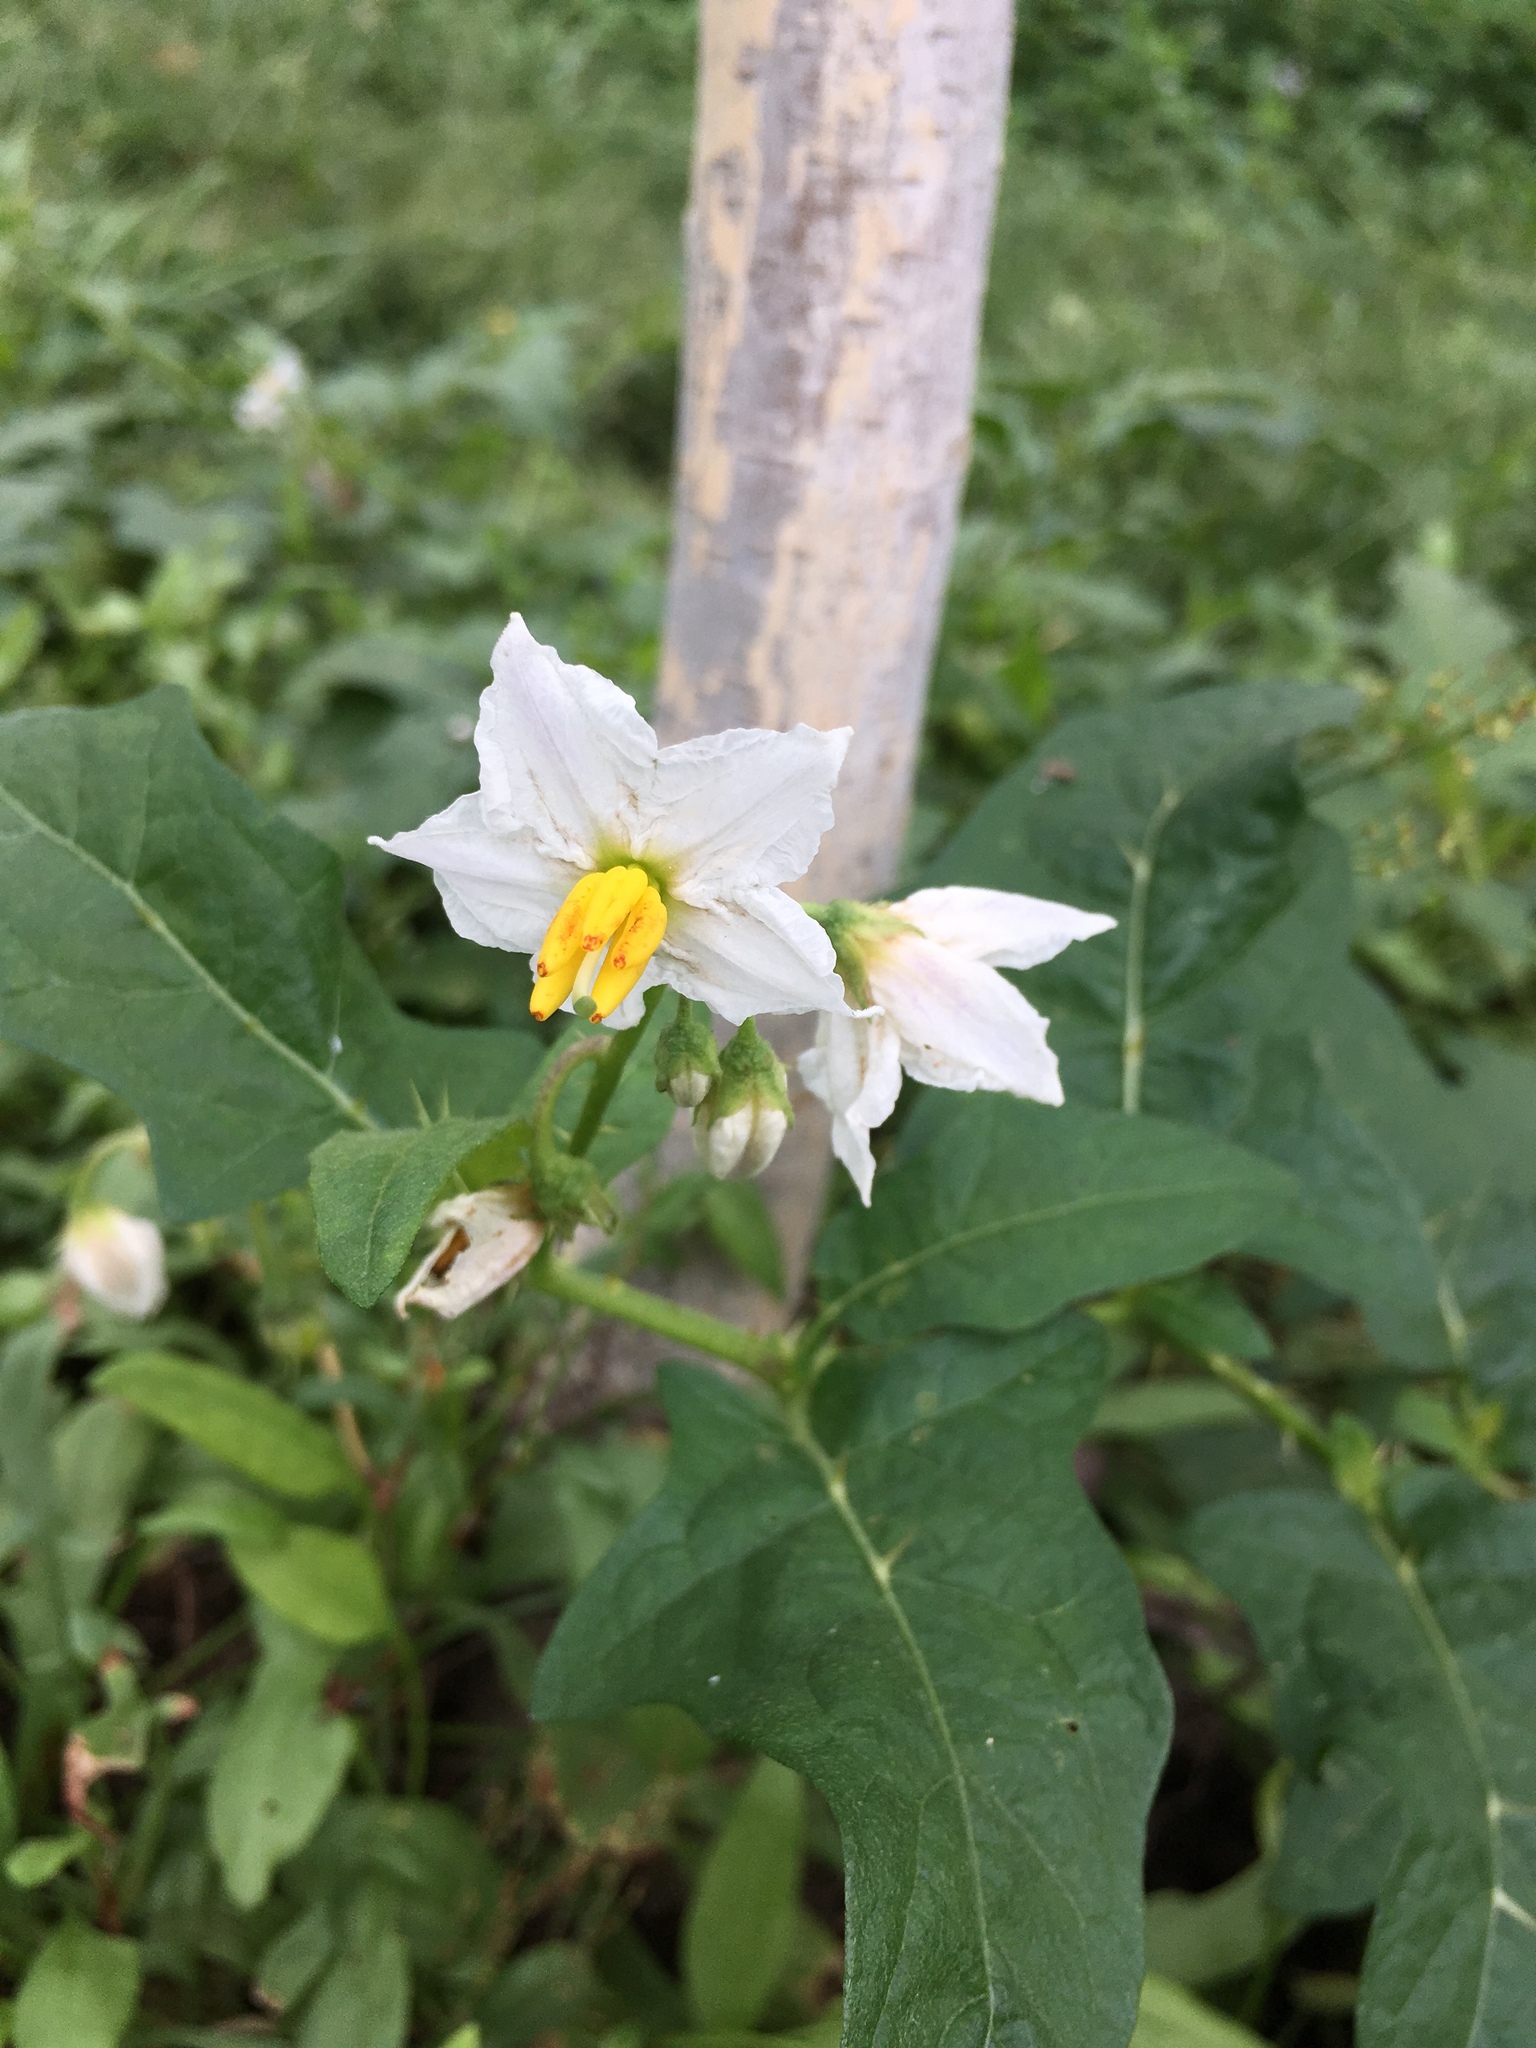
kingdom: Plantae
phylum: Tracheophyta
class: Magnoliopsida
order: Solanales
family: Solanaceae
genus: Solanum
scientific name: Solanum carolinense
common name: Horse-nettle
